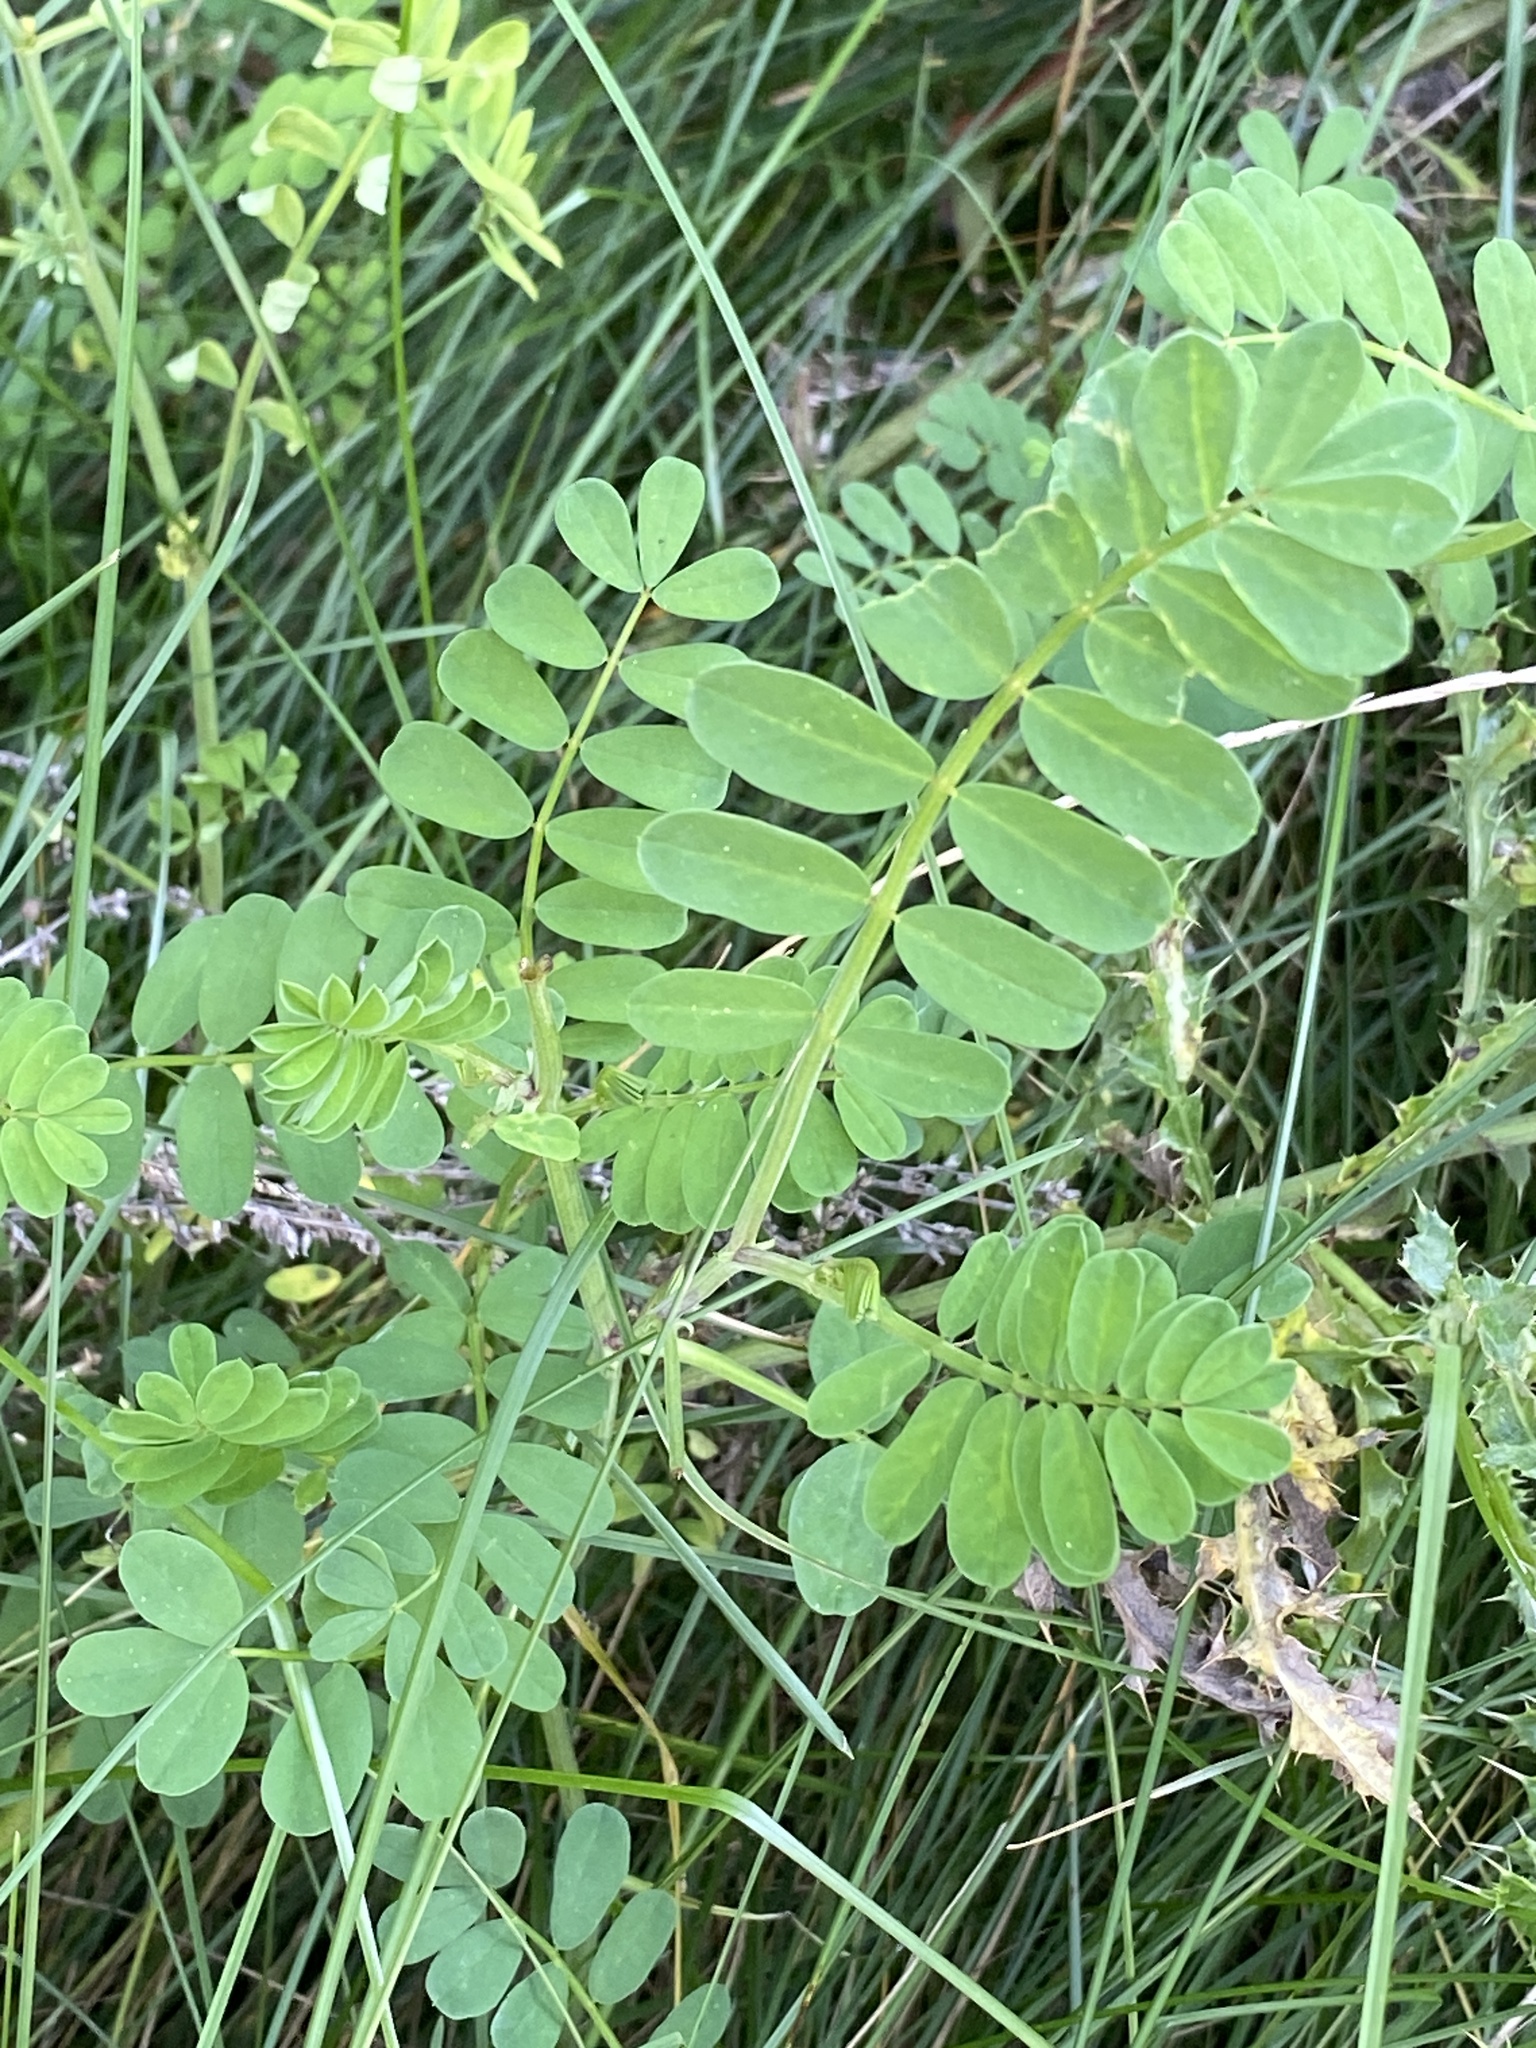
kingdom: Plantae
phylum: Tracheophyta
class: Magnoliopsida
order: Fabales
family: Fabaceae
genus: Coronilla
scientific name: Coronilla varia
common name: Crownvetch
